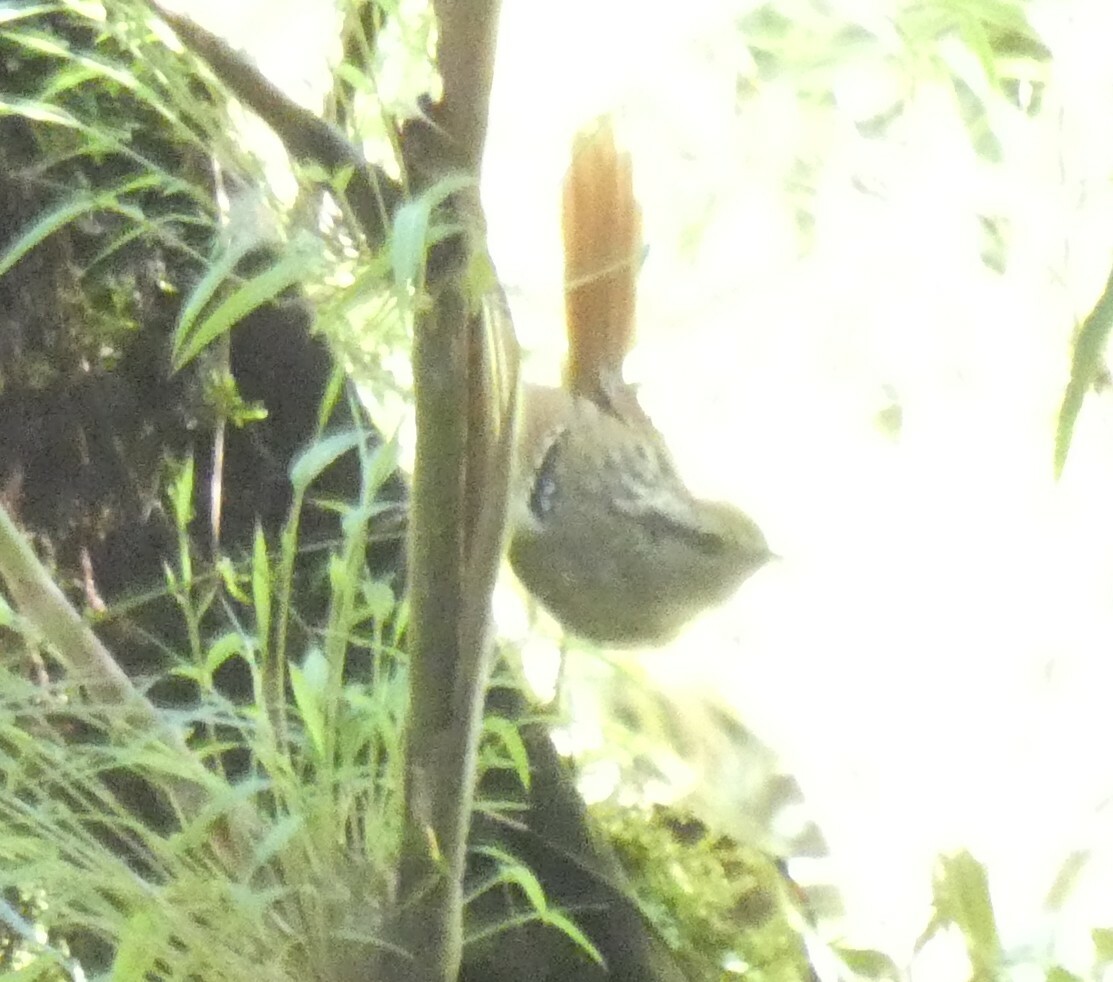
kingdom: Animalia
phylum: Chordata
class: Aves
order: Passeriformes
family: Thamnophilidae
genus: Drymophila
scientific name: Drymophila genei
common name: Rufous-tailed antbird
